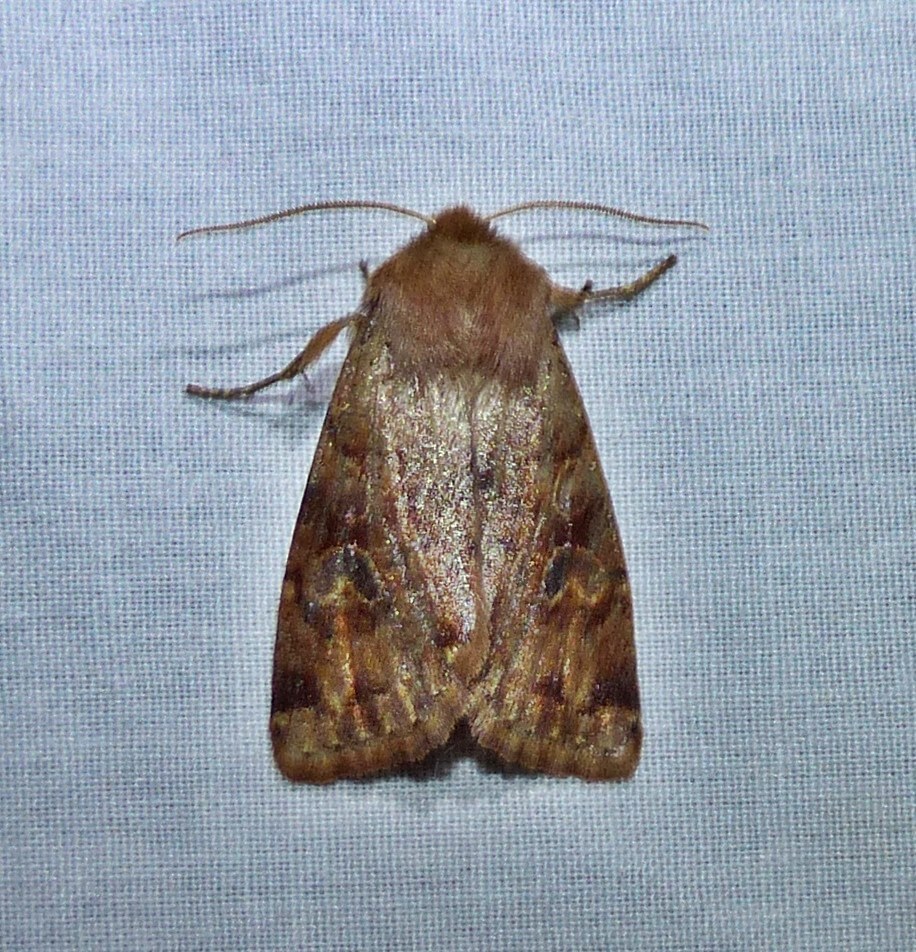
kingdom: Animalia
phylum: Arthropoda
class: Insecta
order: Lepidoptera
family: Noctuidae
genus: Orthosia
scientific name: Orthosia rubescens
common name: Ruby quaker
